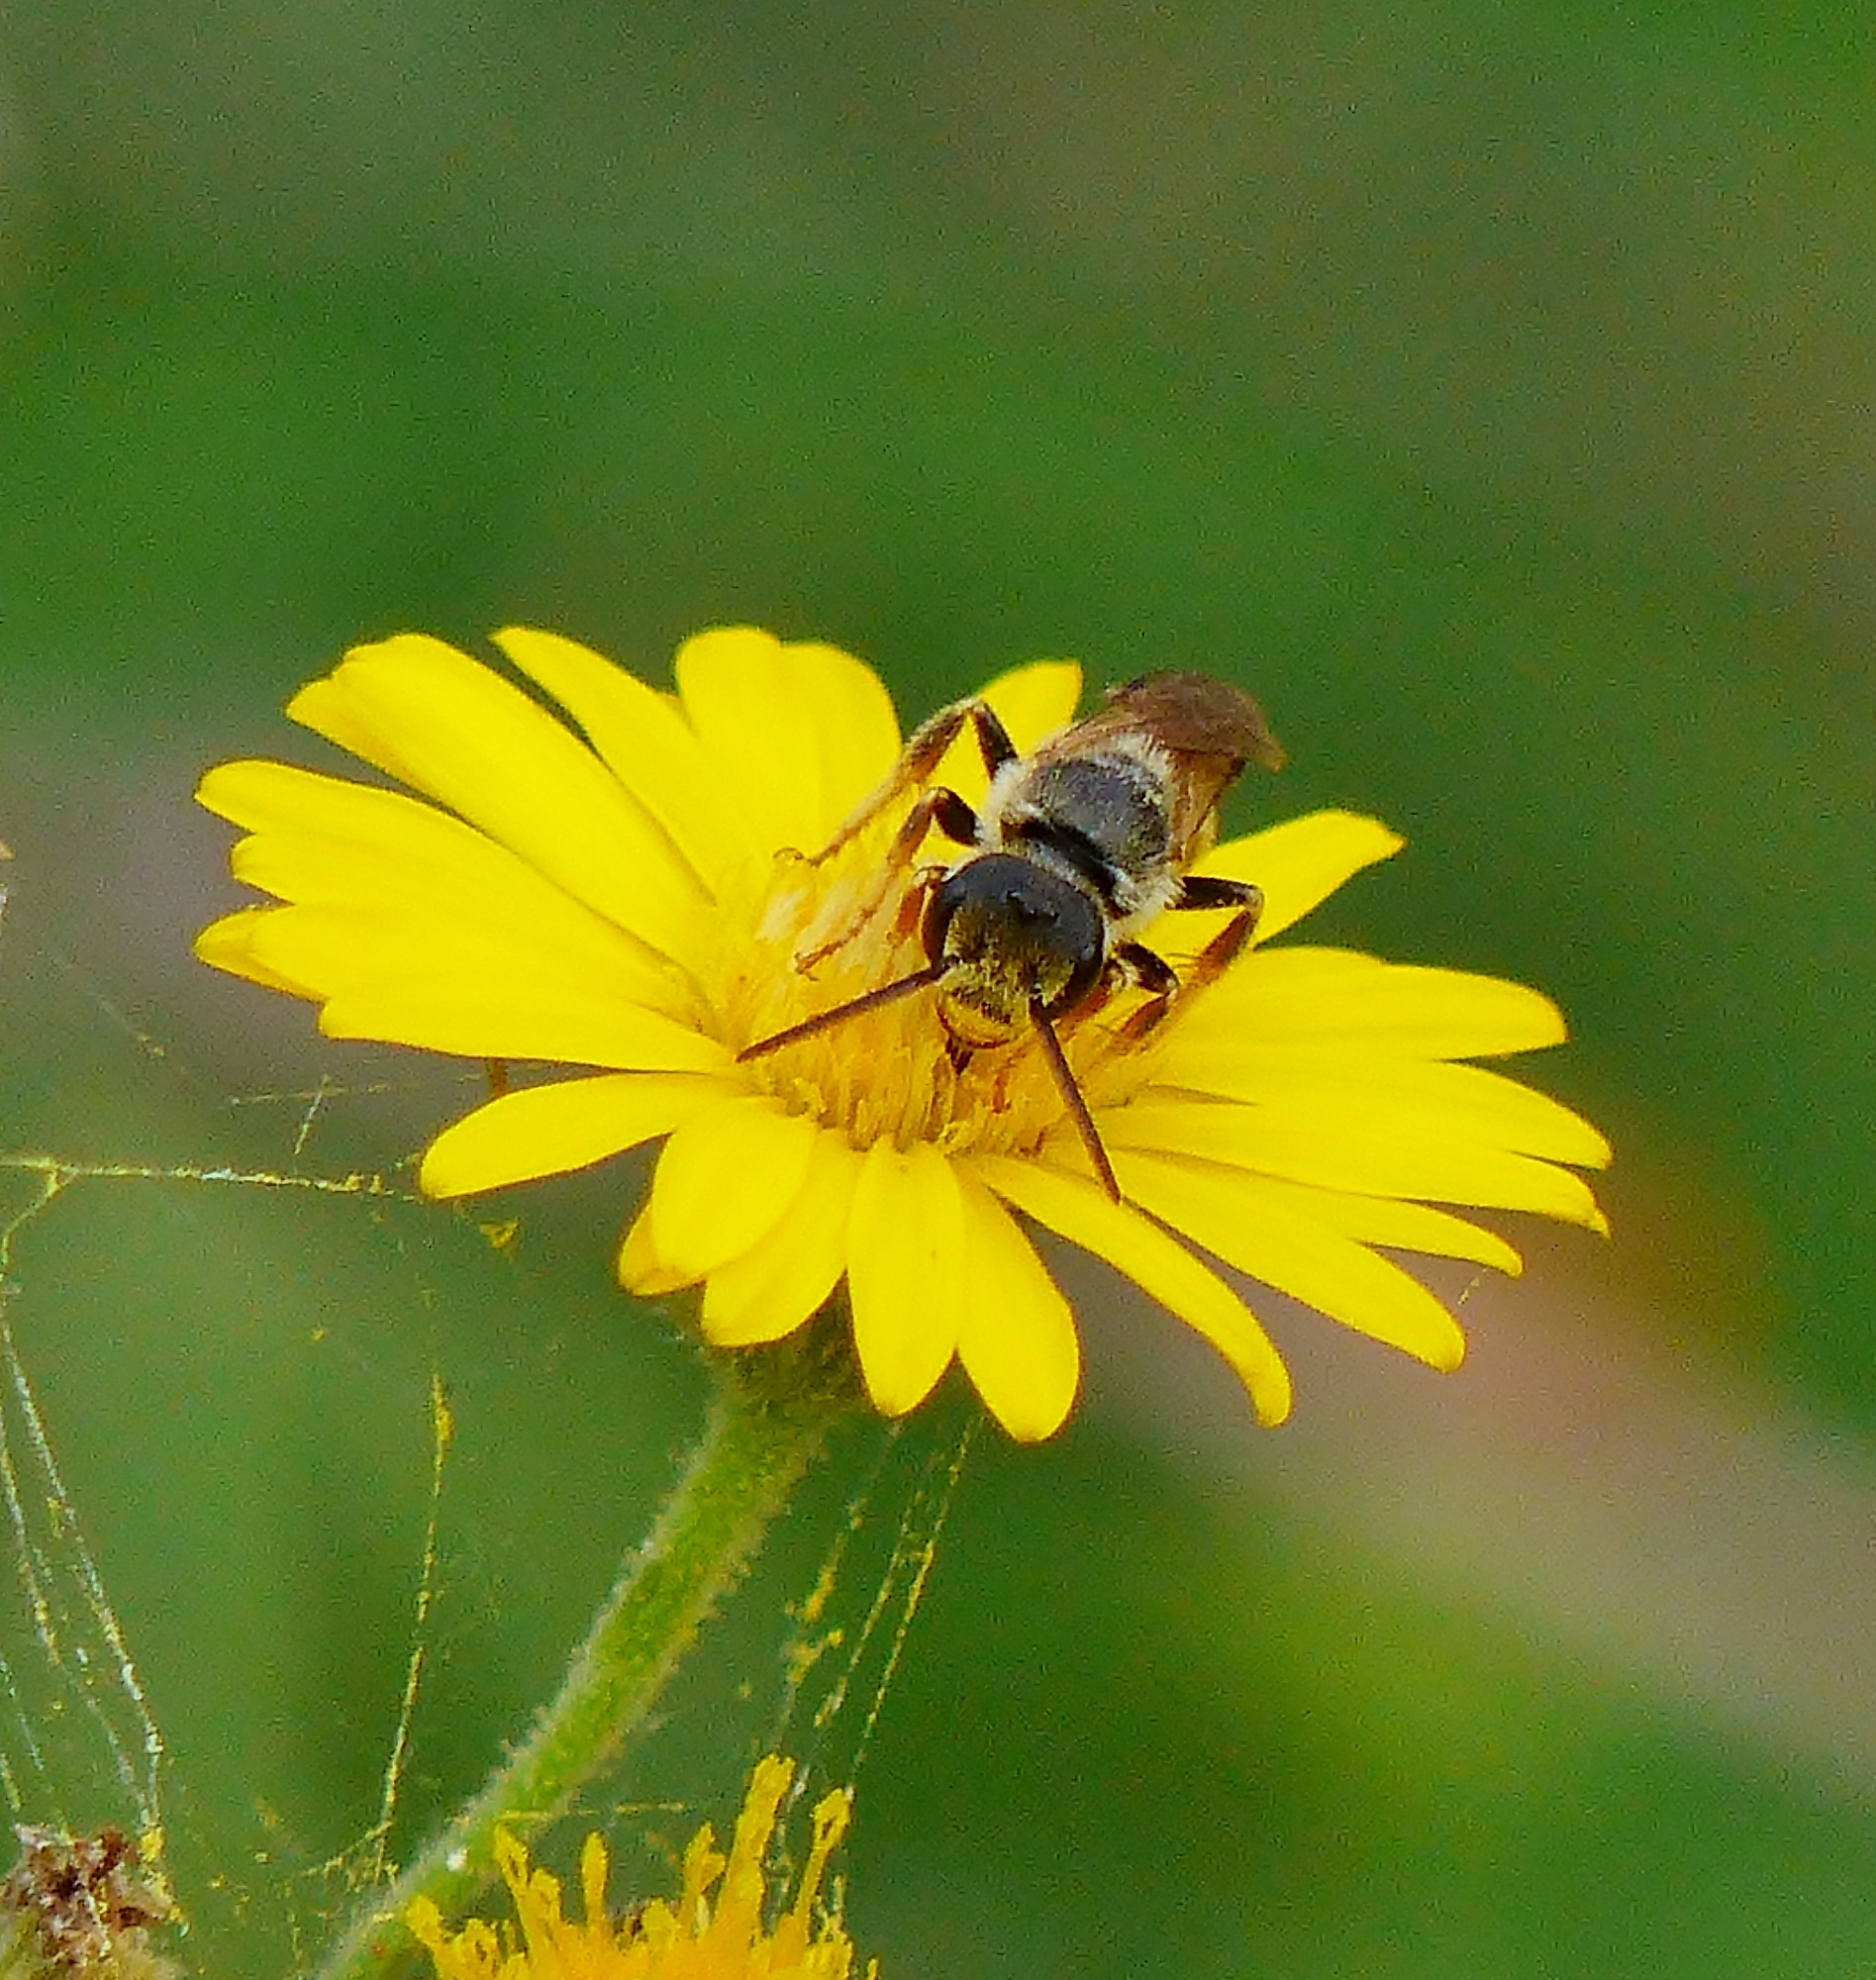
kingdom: Animalia
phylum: Arthropoda
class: Insecta
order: Hymenoptera
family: Halictidae
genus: Halictus
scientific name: Halictus ligatus
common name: Ligated furrow bee
